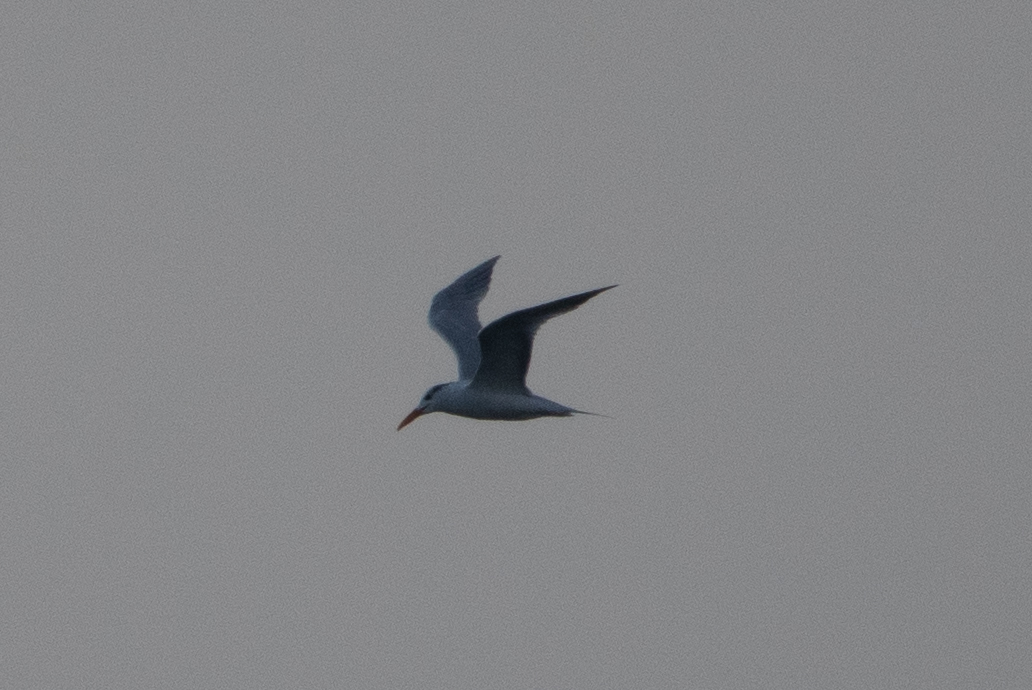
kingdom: Animalia
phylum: Chordata
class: Aves
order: Charadriiformes
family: Laridae
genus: Thalasseus
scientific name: Thalasseus maximus
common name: Royal tern
